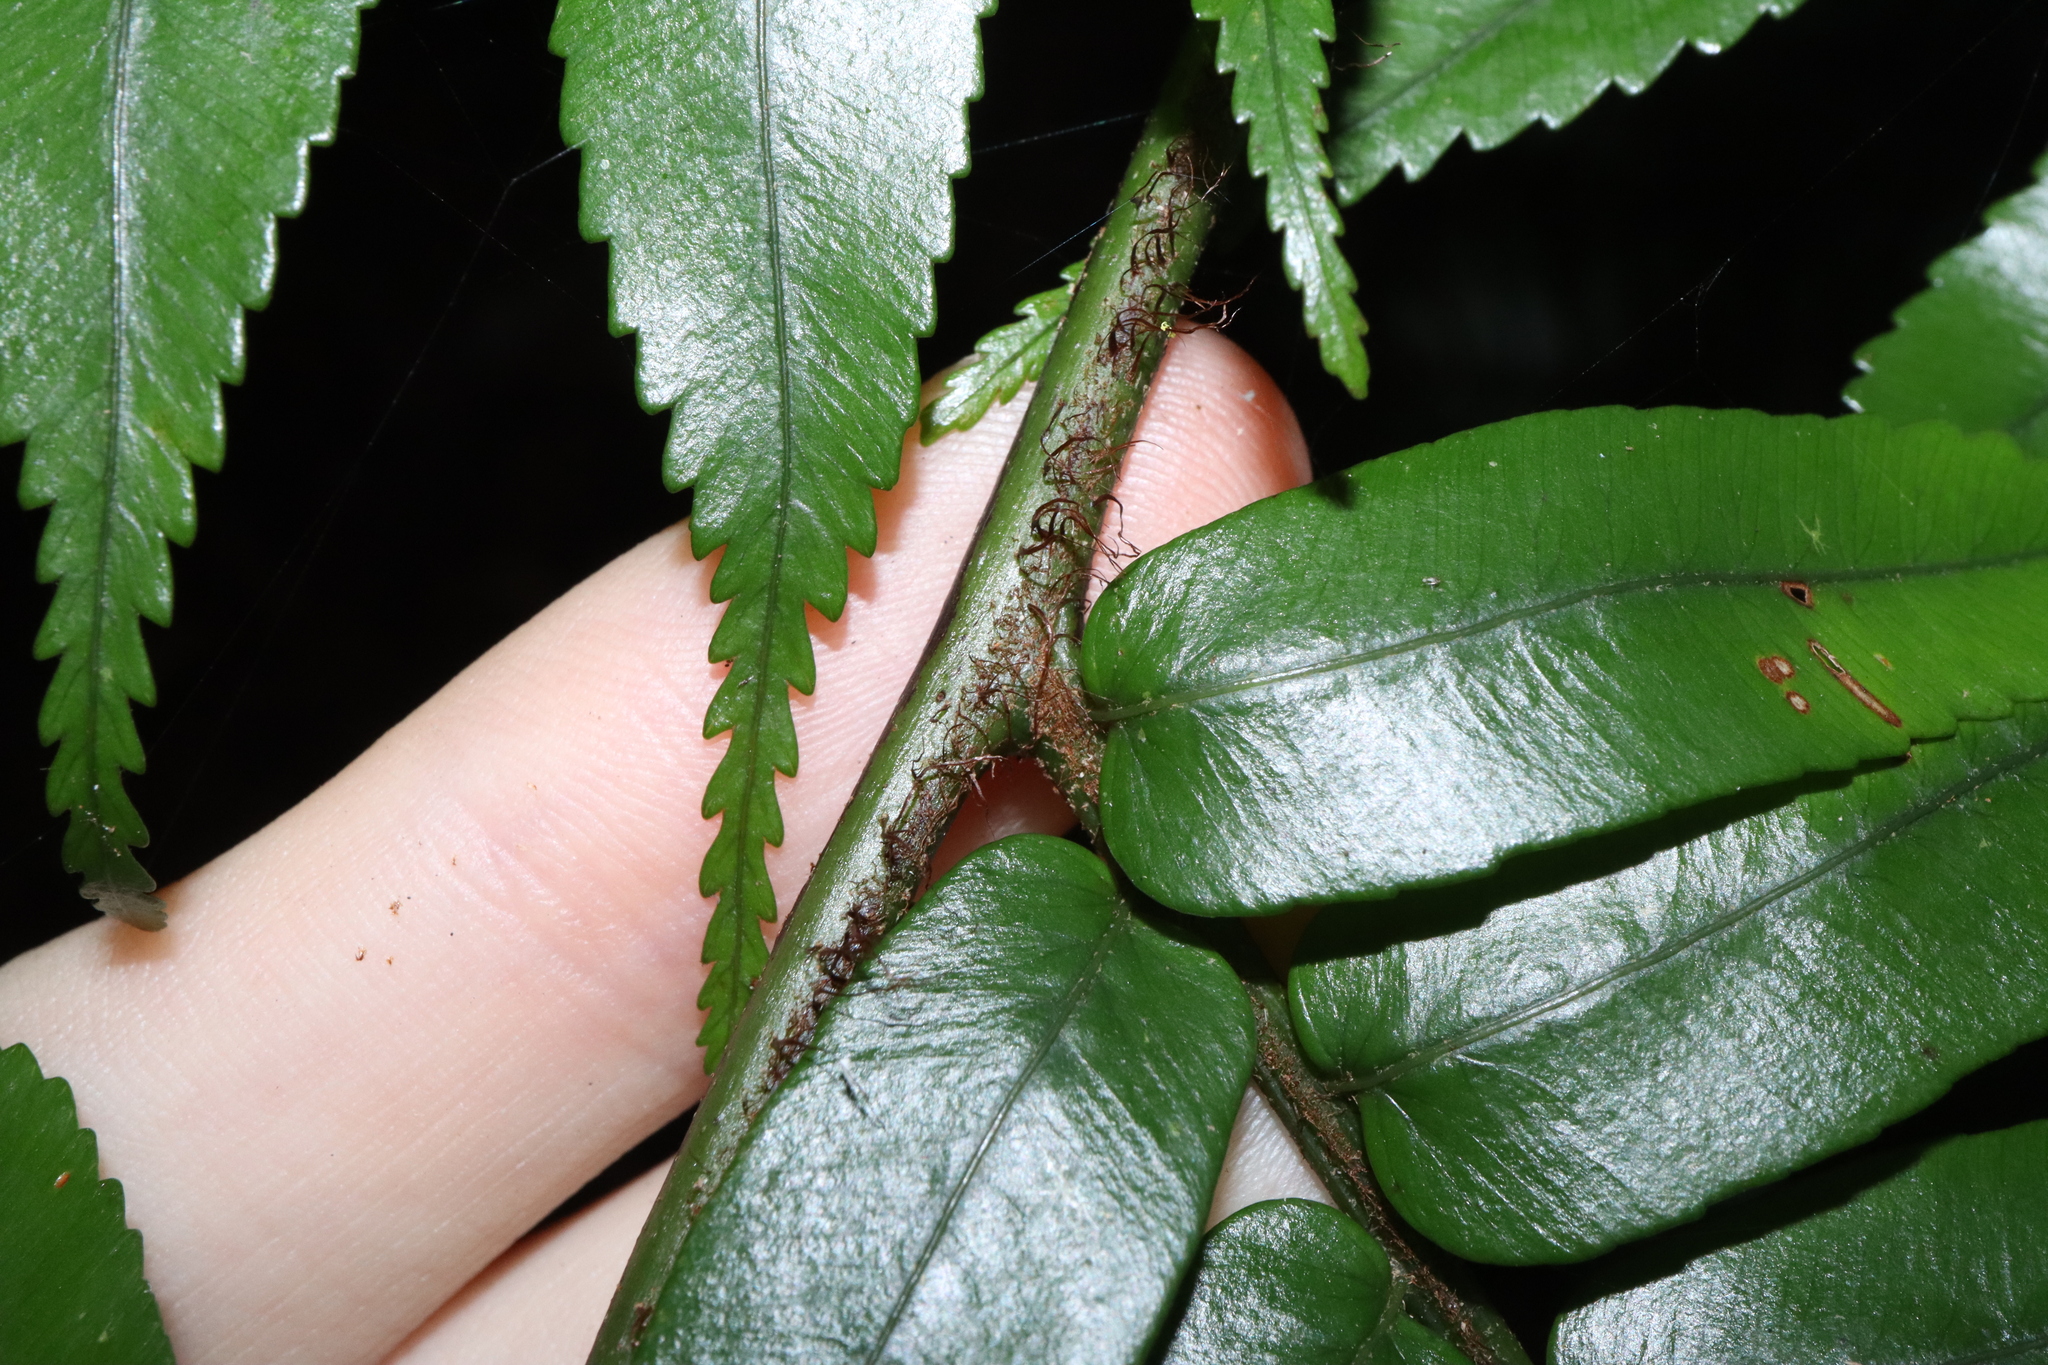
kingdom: Plantae
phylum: Tracheophyta
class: Polypodiopsida
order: Cyatheales
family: Cyatheaceae
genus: Gymnosphaera
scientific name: Gymnosphaera rebeccae
